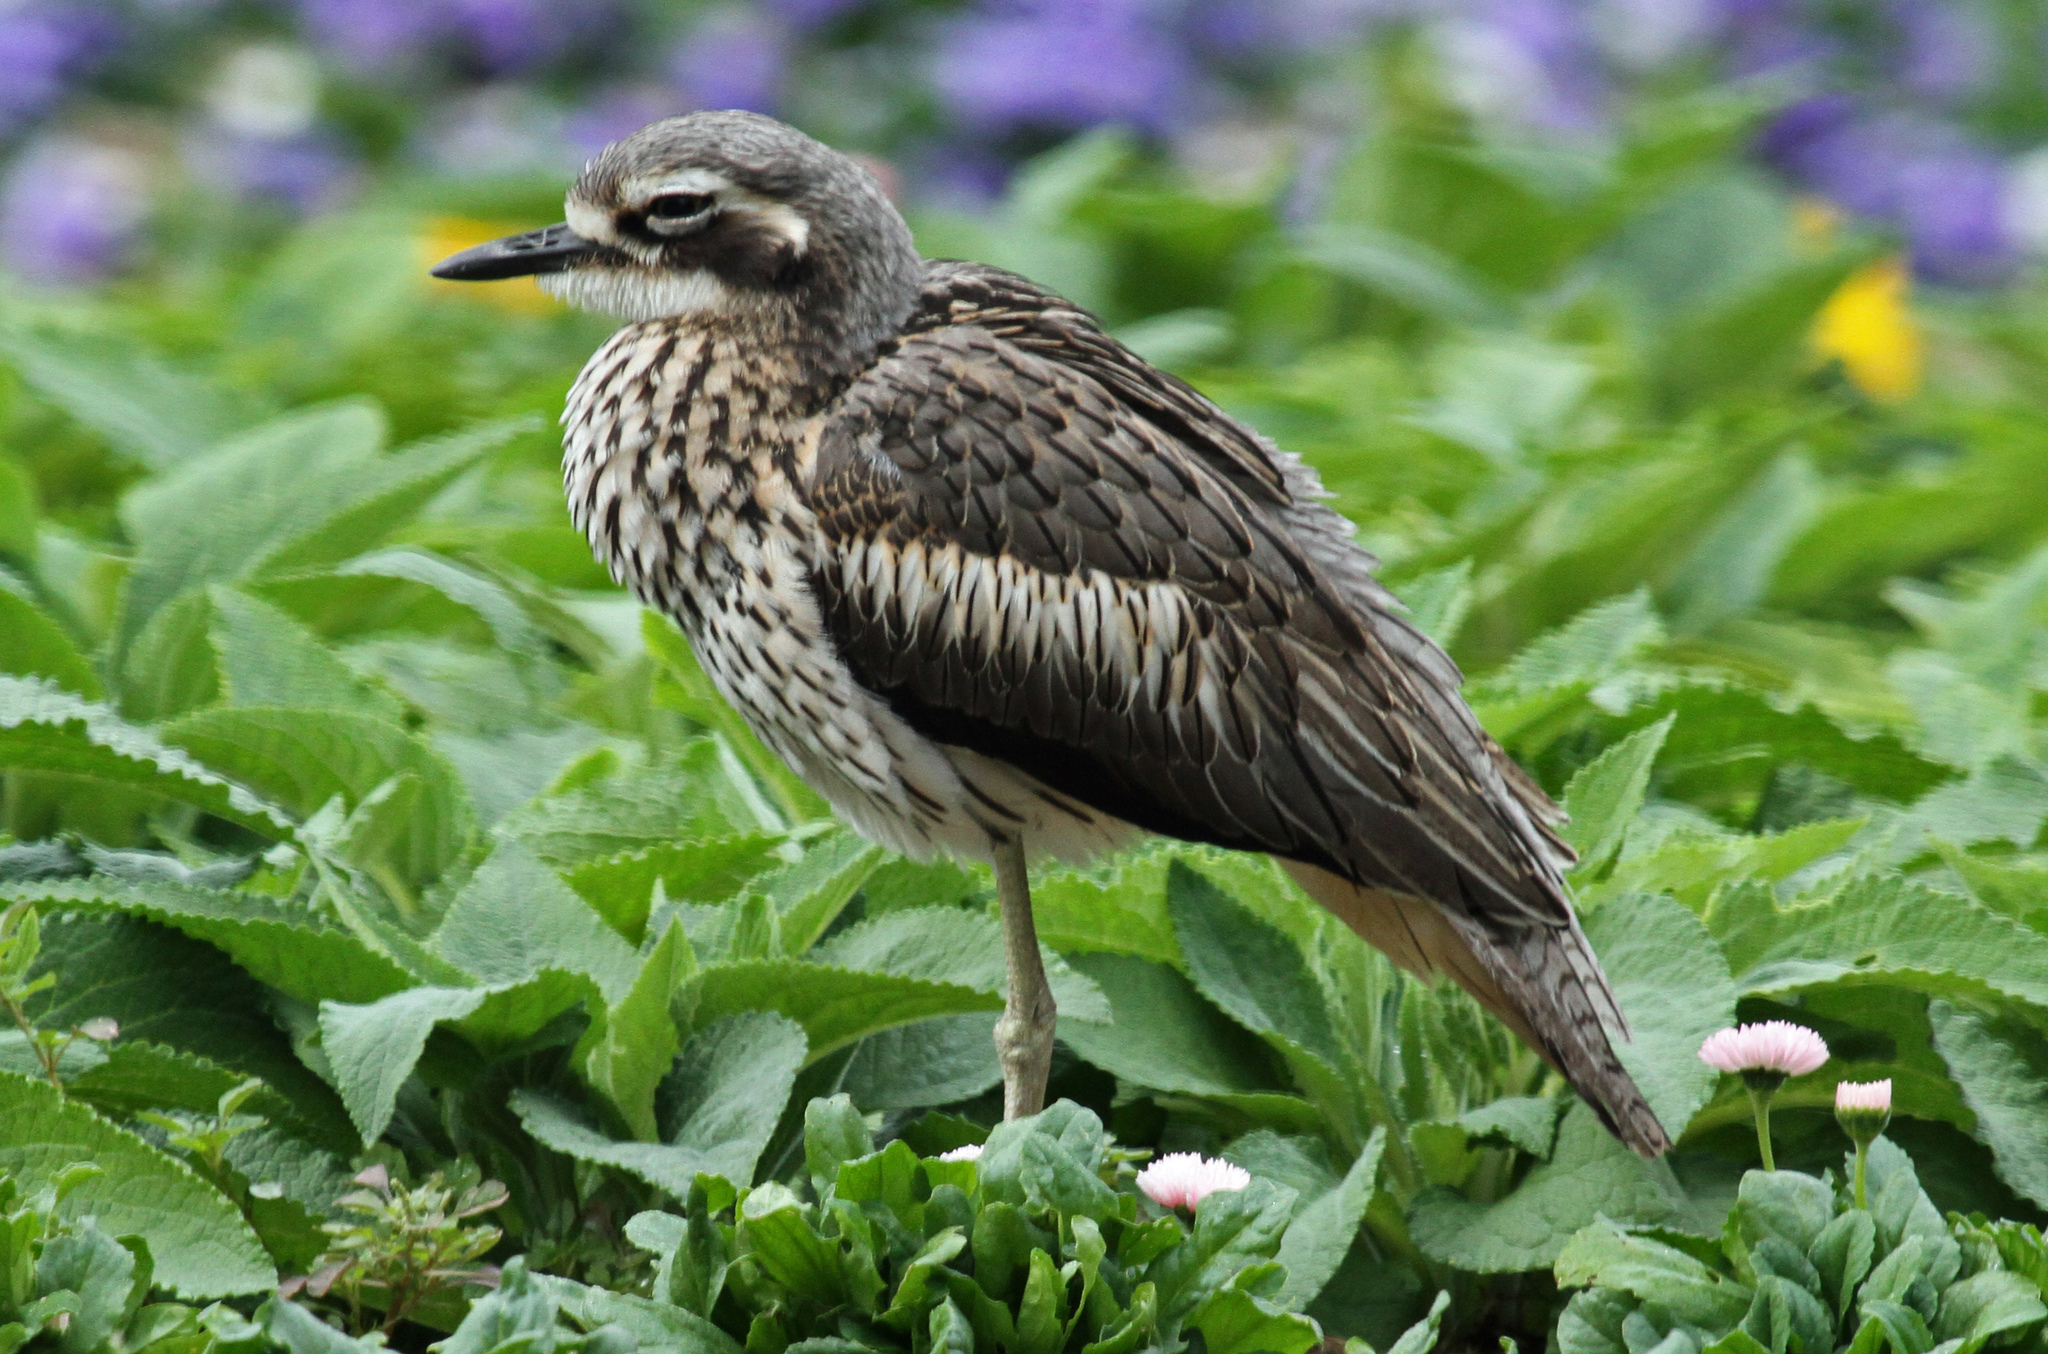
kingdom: Animalia
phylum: Chordata
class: Aves
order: Charadriiformes
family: Burhinidae
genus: Burhinus
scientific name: Burhinus grallarius
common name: Bush stone-curlew
